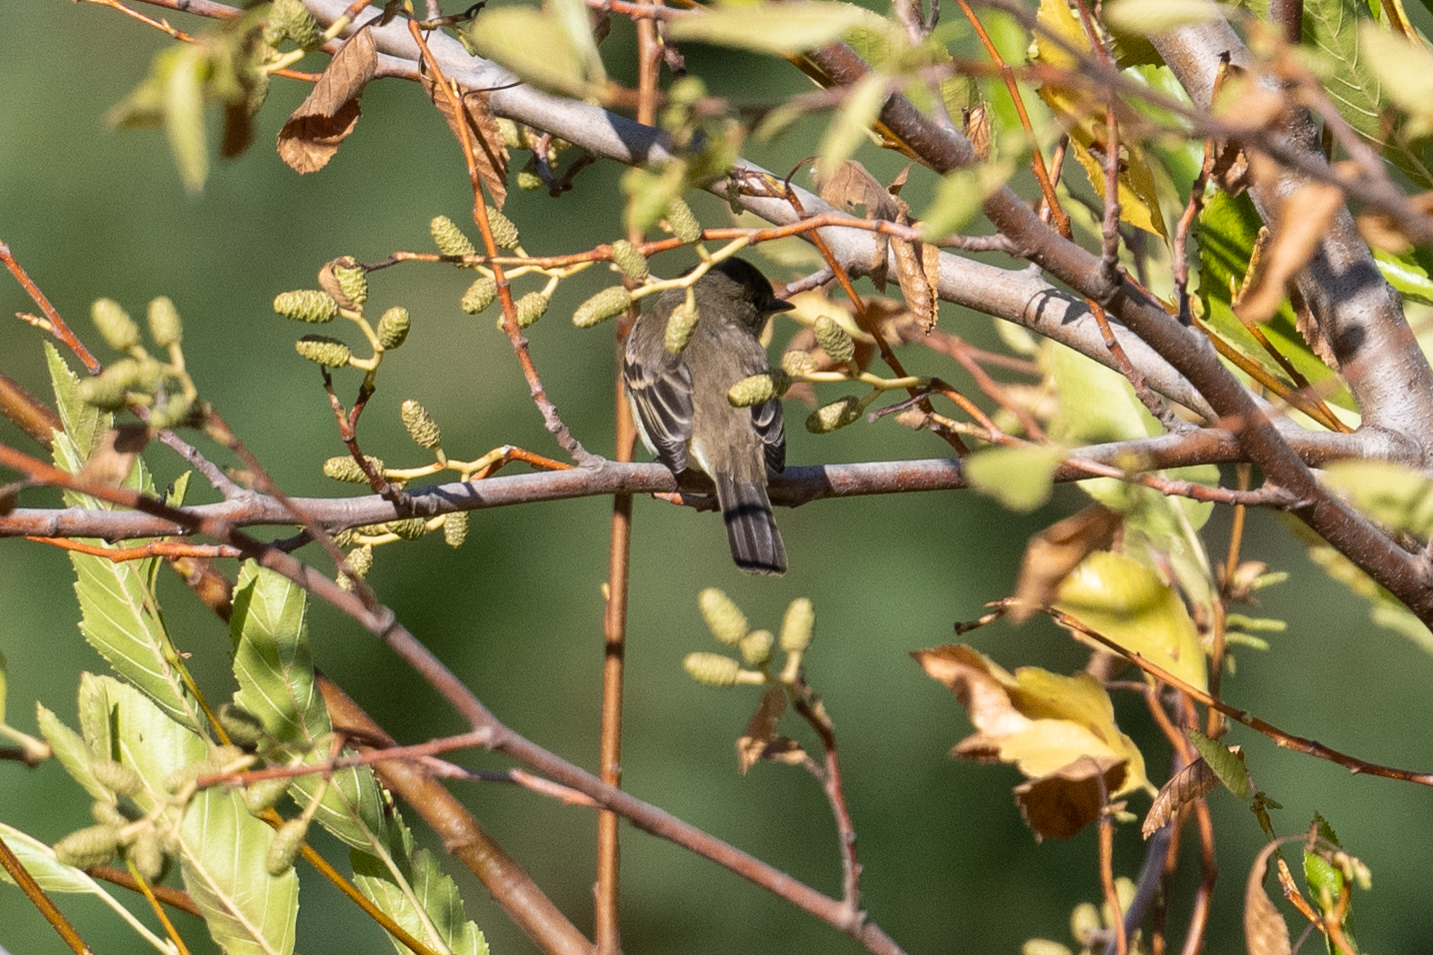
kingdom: Animalia
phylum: Chordata
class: Aves
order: Passeriformes
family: Tyrannidae
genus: Empidonax
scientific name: Empidonax traillii
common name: Willow flycatcher
